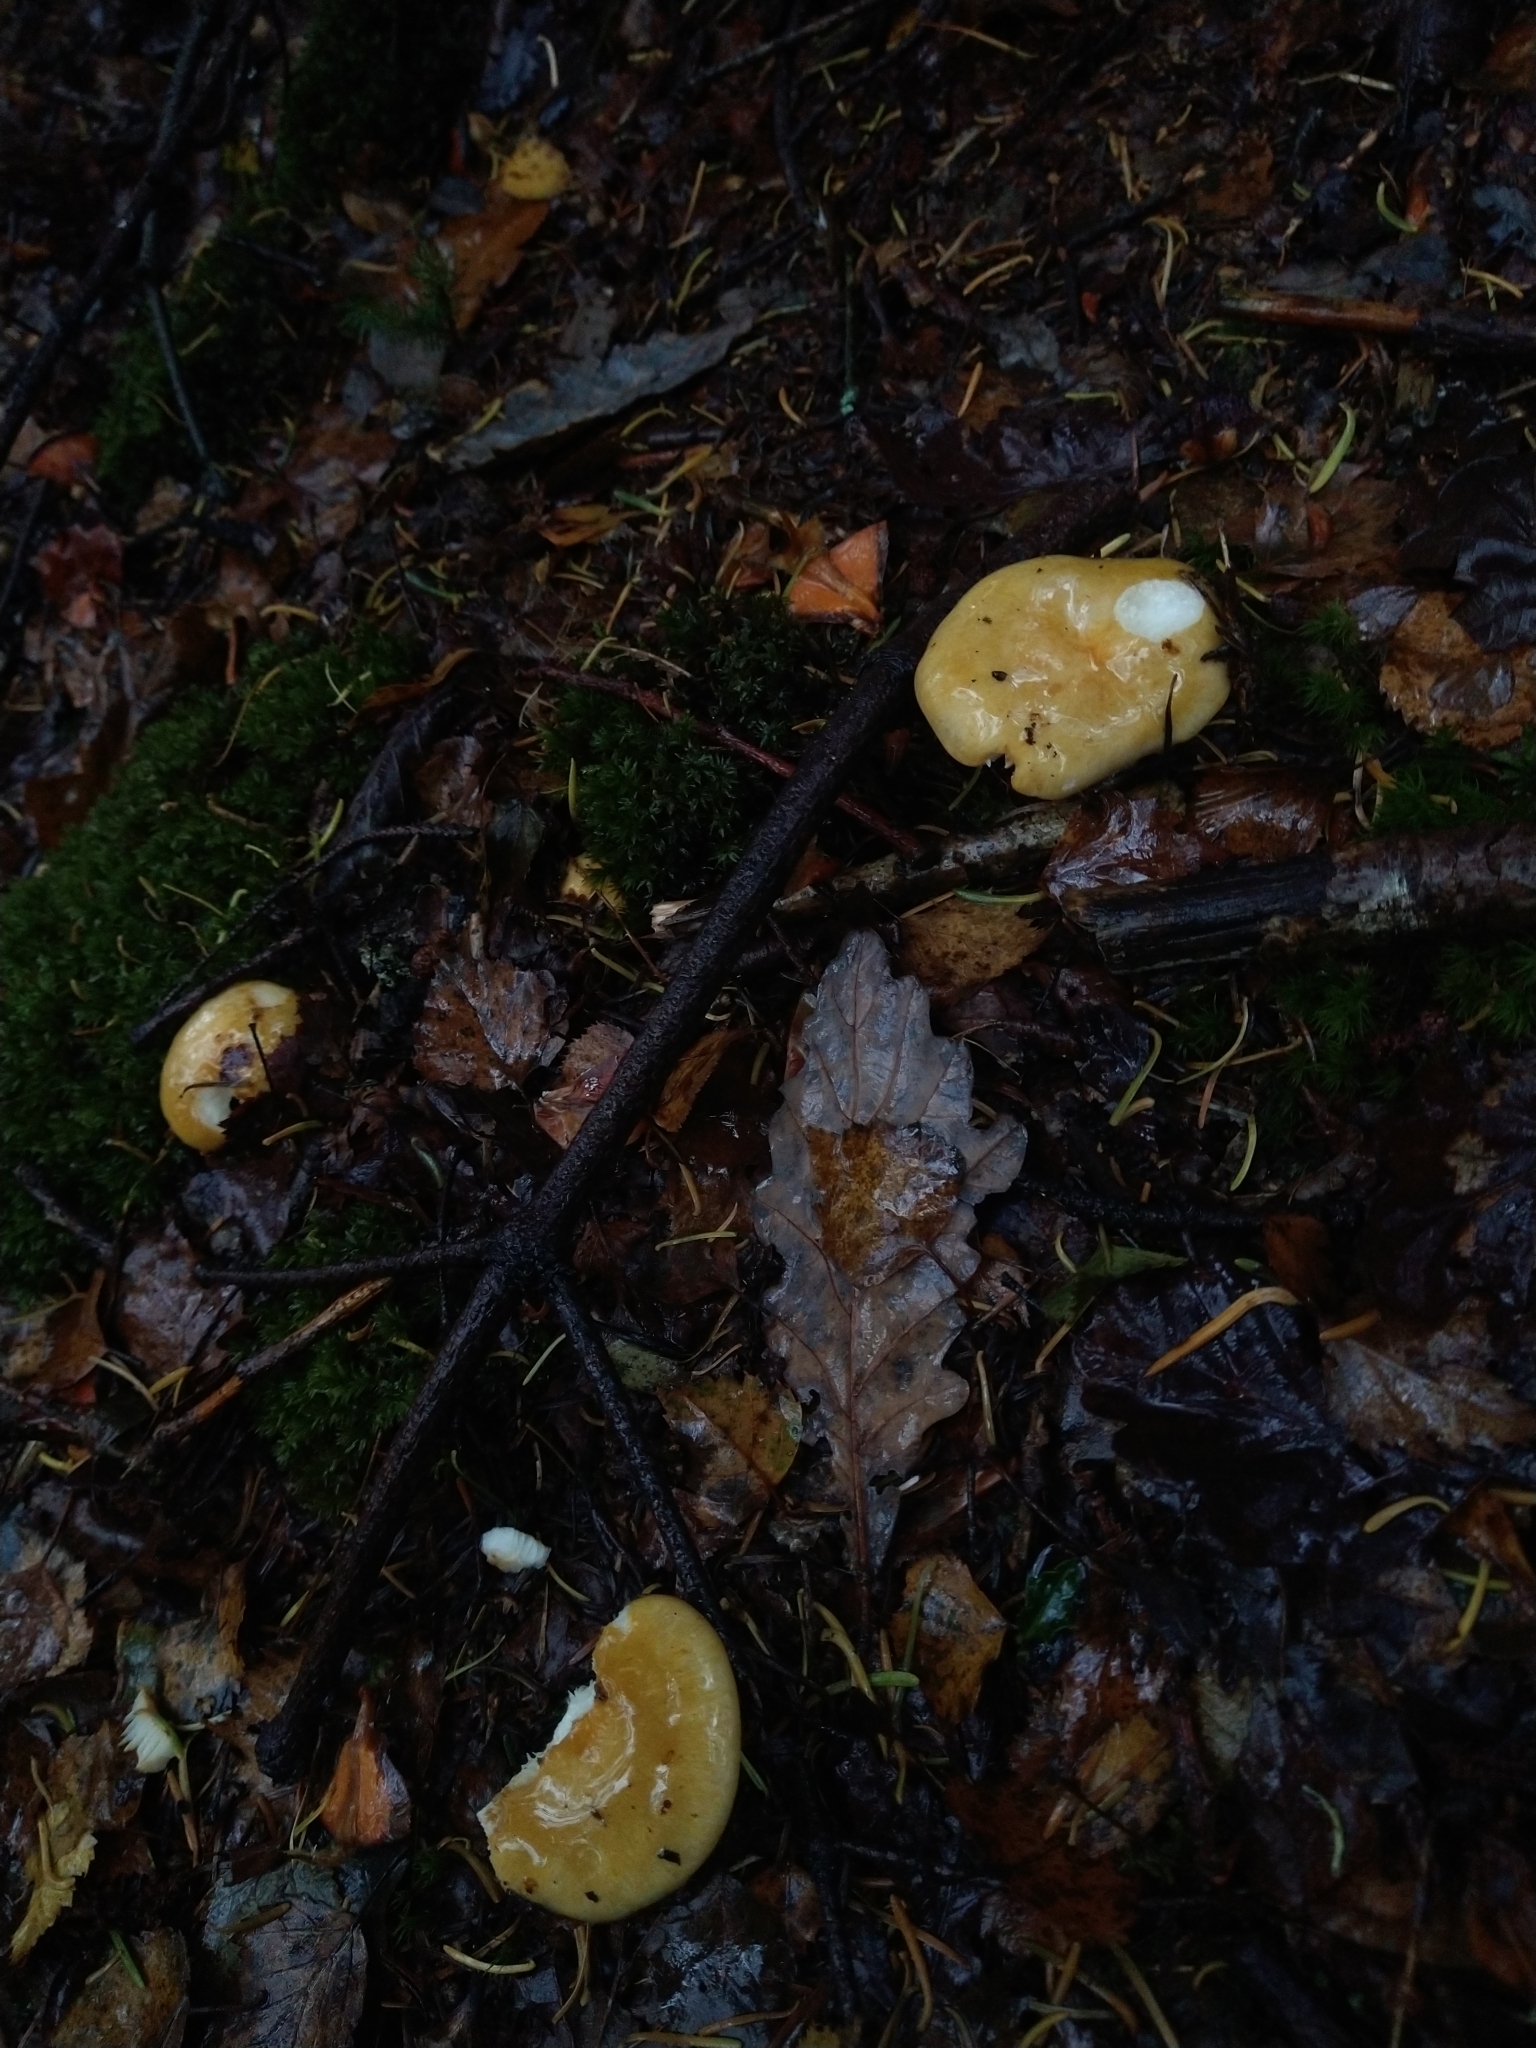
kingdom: Fungi
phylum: Basidiomycota
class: Agaricomycetes
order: Russulales
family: Russulaceae
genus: Russula
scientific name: Russula ochroleuca
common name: Common yellow russula
